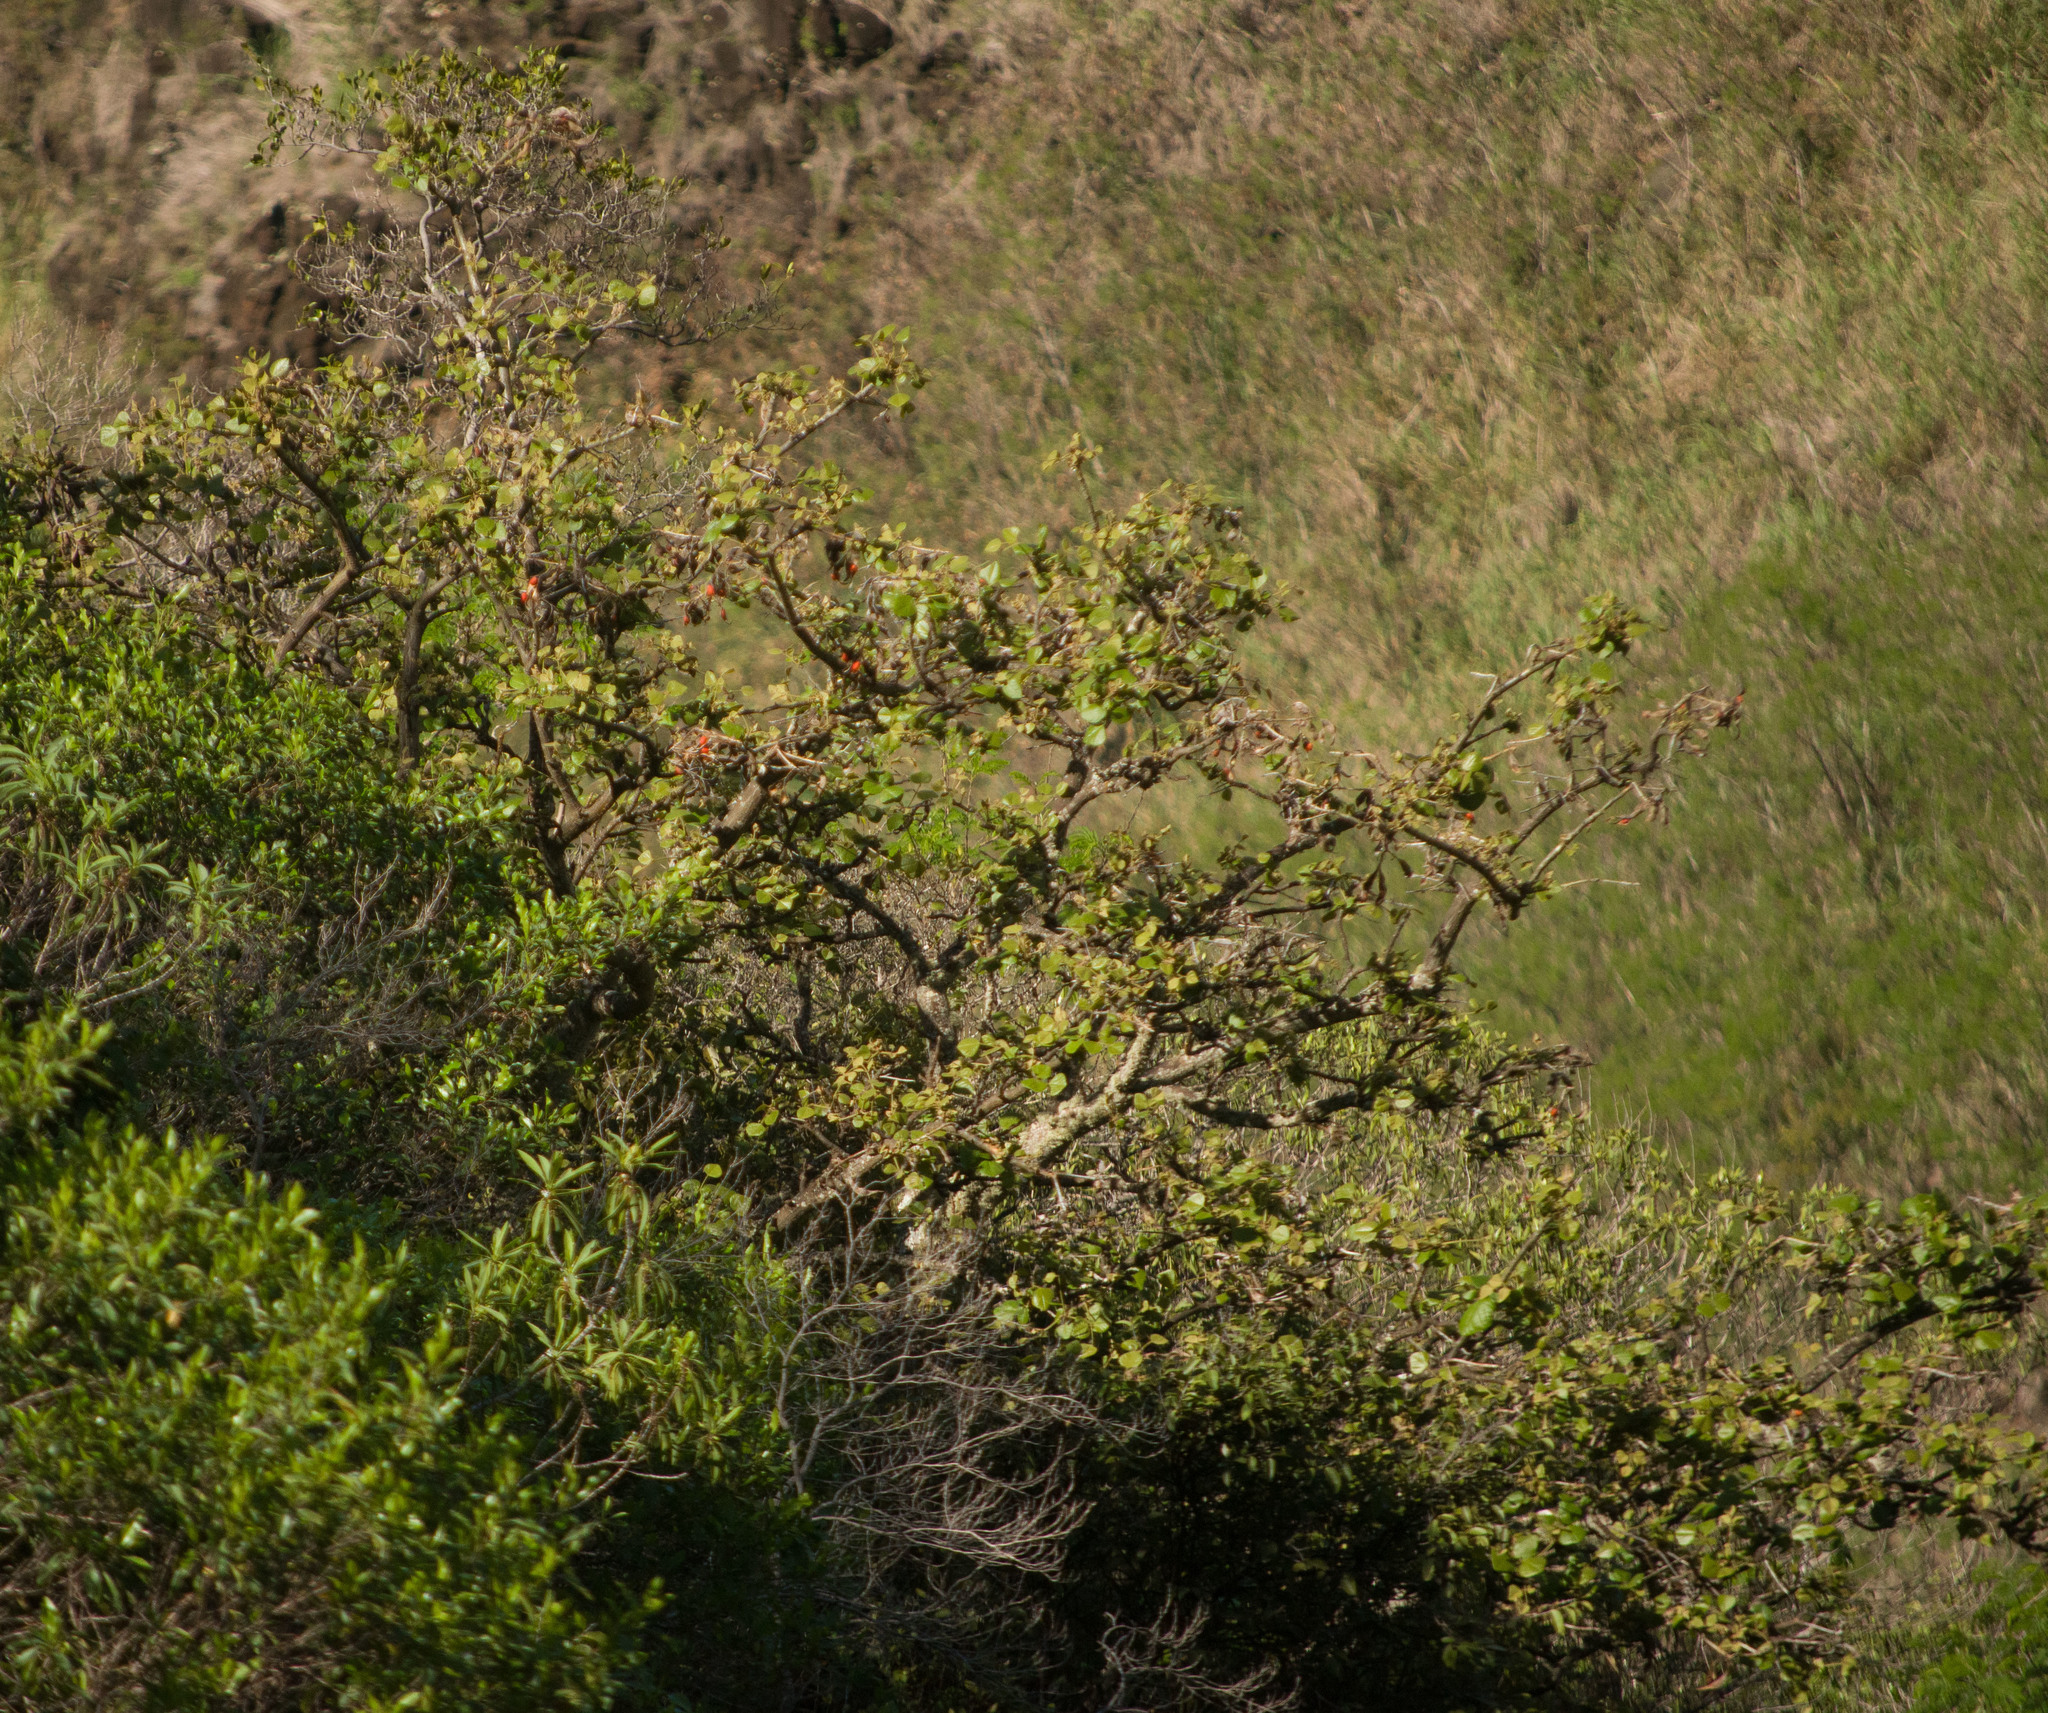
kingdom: Plantae
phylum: Tracheophyta
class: Magnoliopsida
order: Fabales
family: Fabaceae
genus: Erythrina
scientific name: Erythrina sandwicensis
